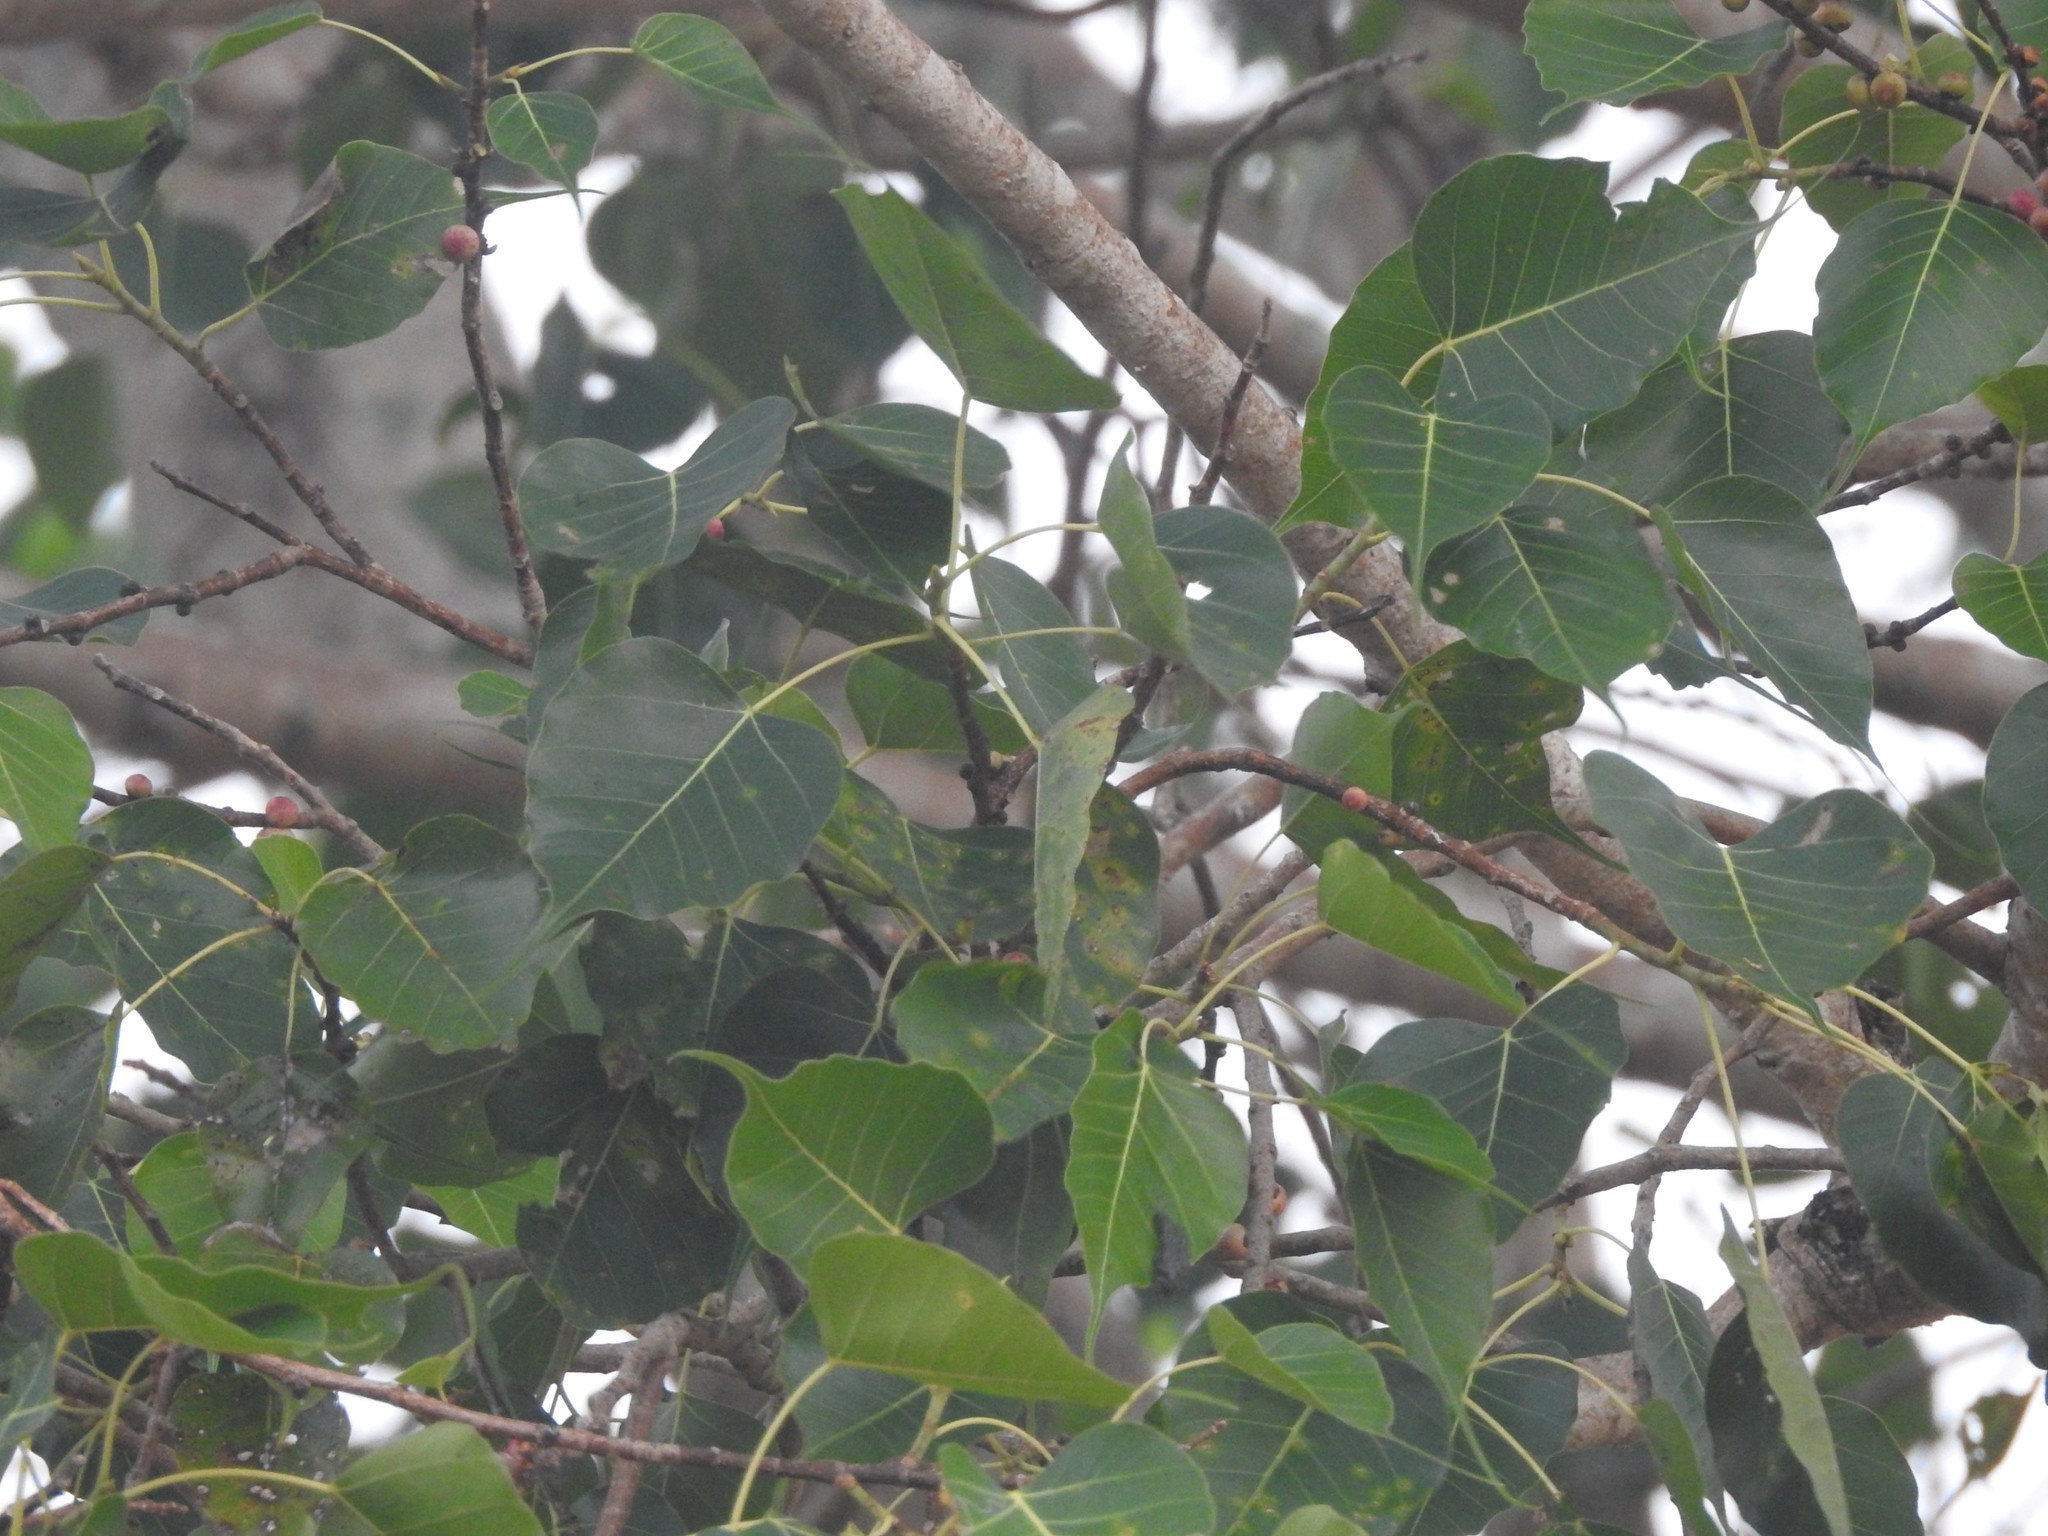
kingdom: Plantae
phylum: Tracheophyta
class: Magnoliopsida
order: Rosales
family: Moraceae
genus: Ficus
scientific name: Ficus religiosa
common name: Bodhi tree
